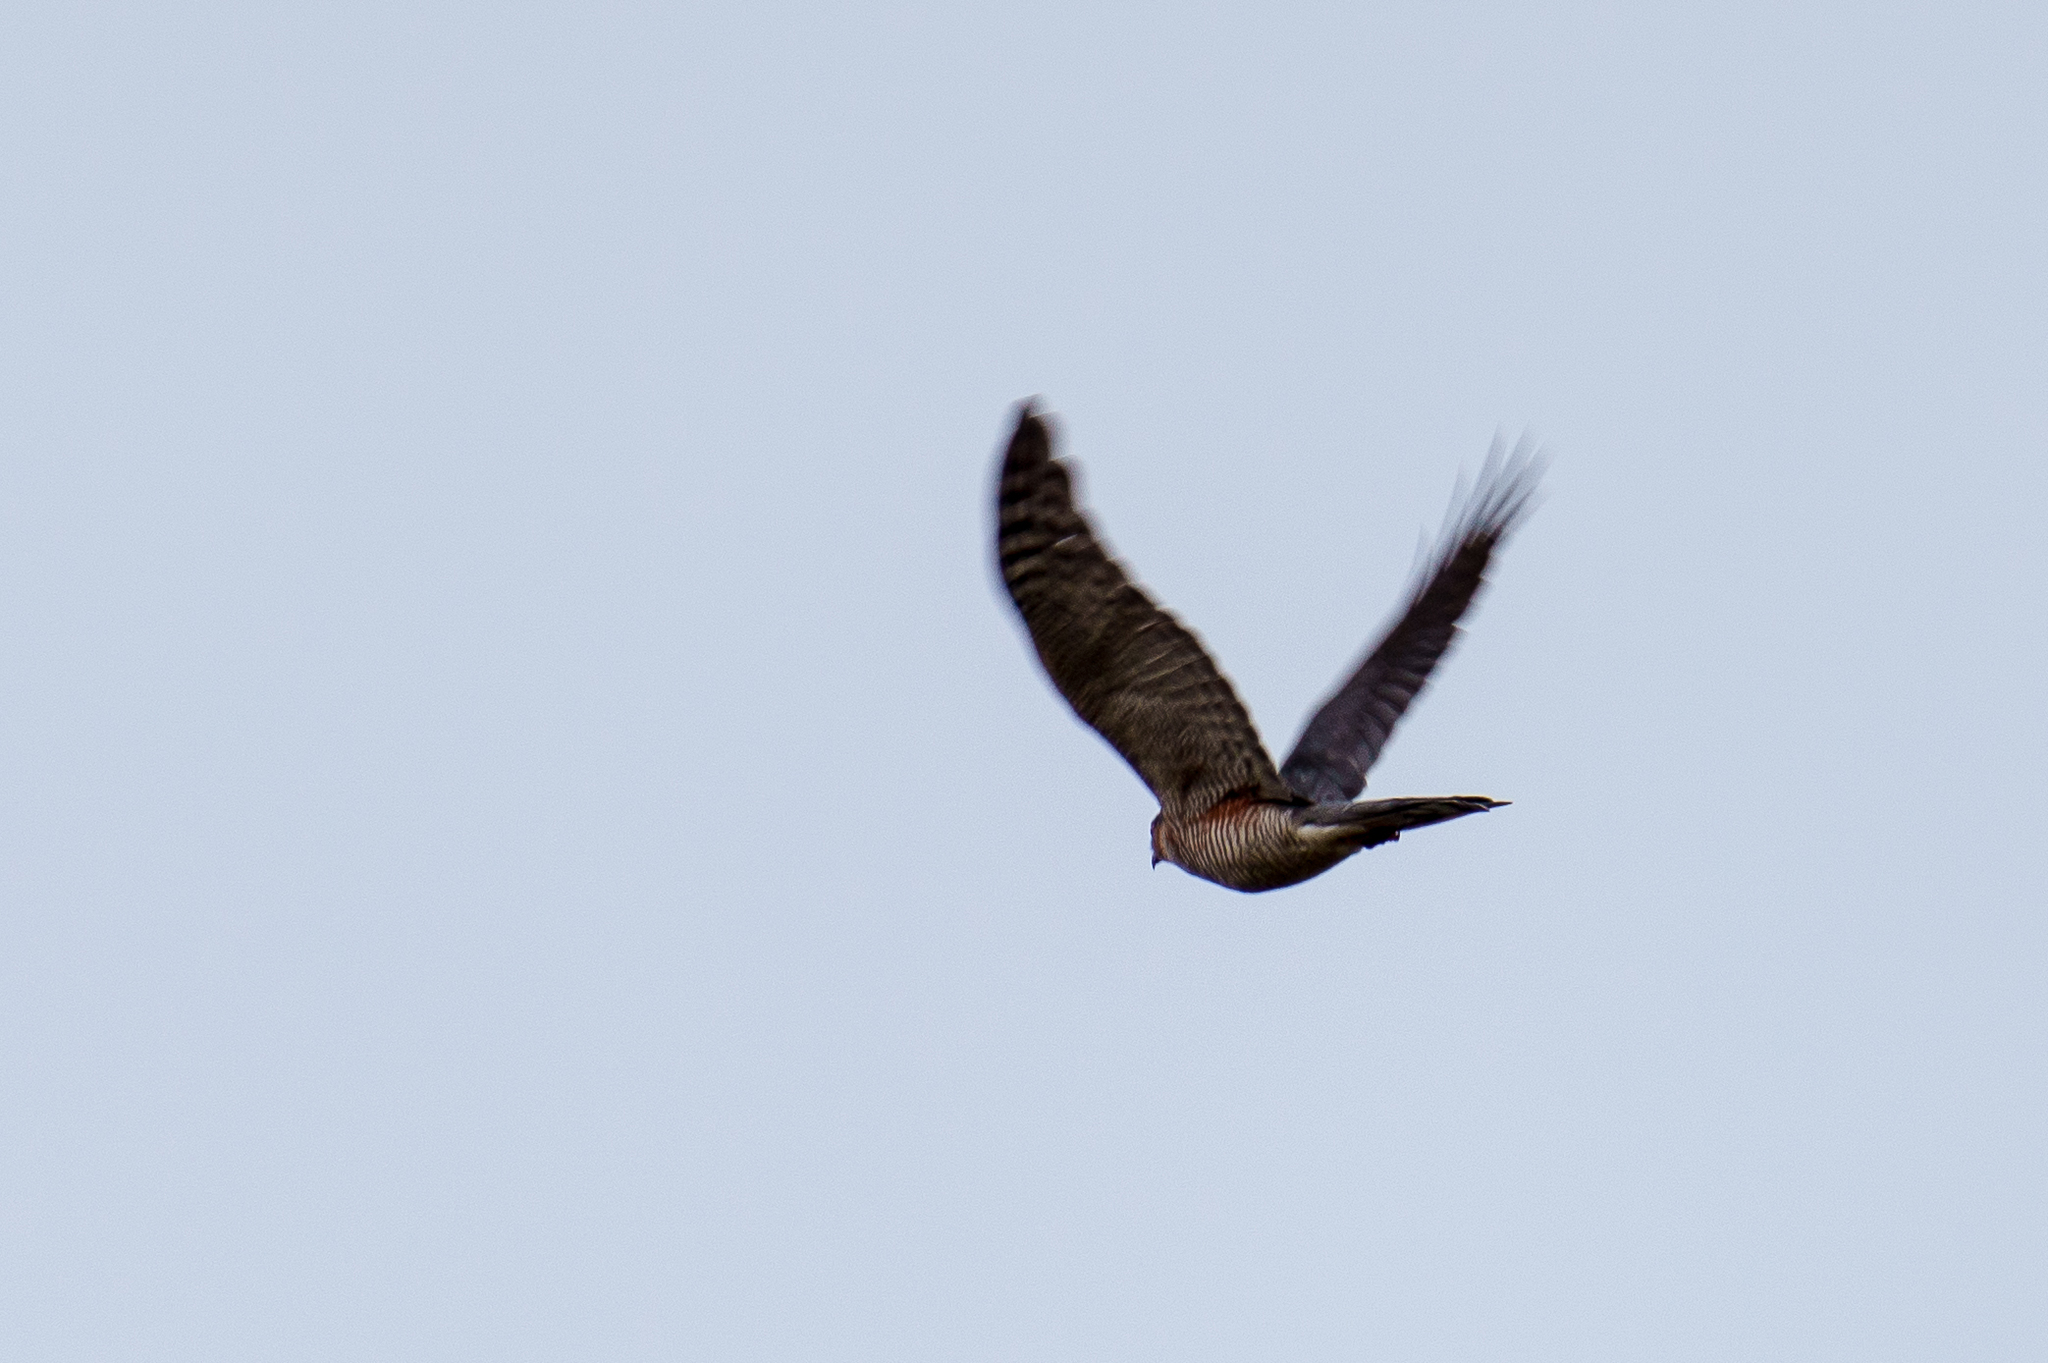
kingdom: Animalia
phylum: Chordata
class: Aves
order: Accipitriformes
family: Accipitridae
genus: Accipiter
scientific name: Accipiter nisus
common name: Eurasian sparrowhawk
